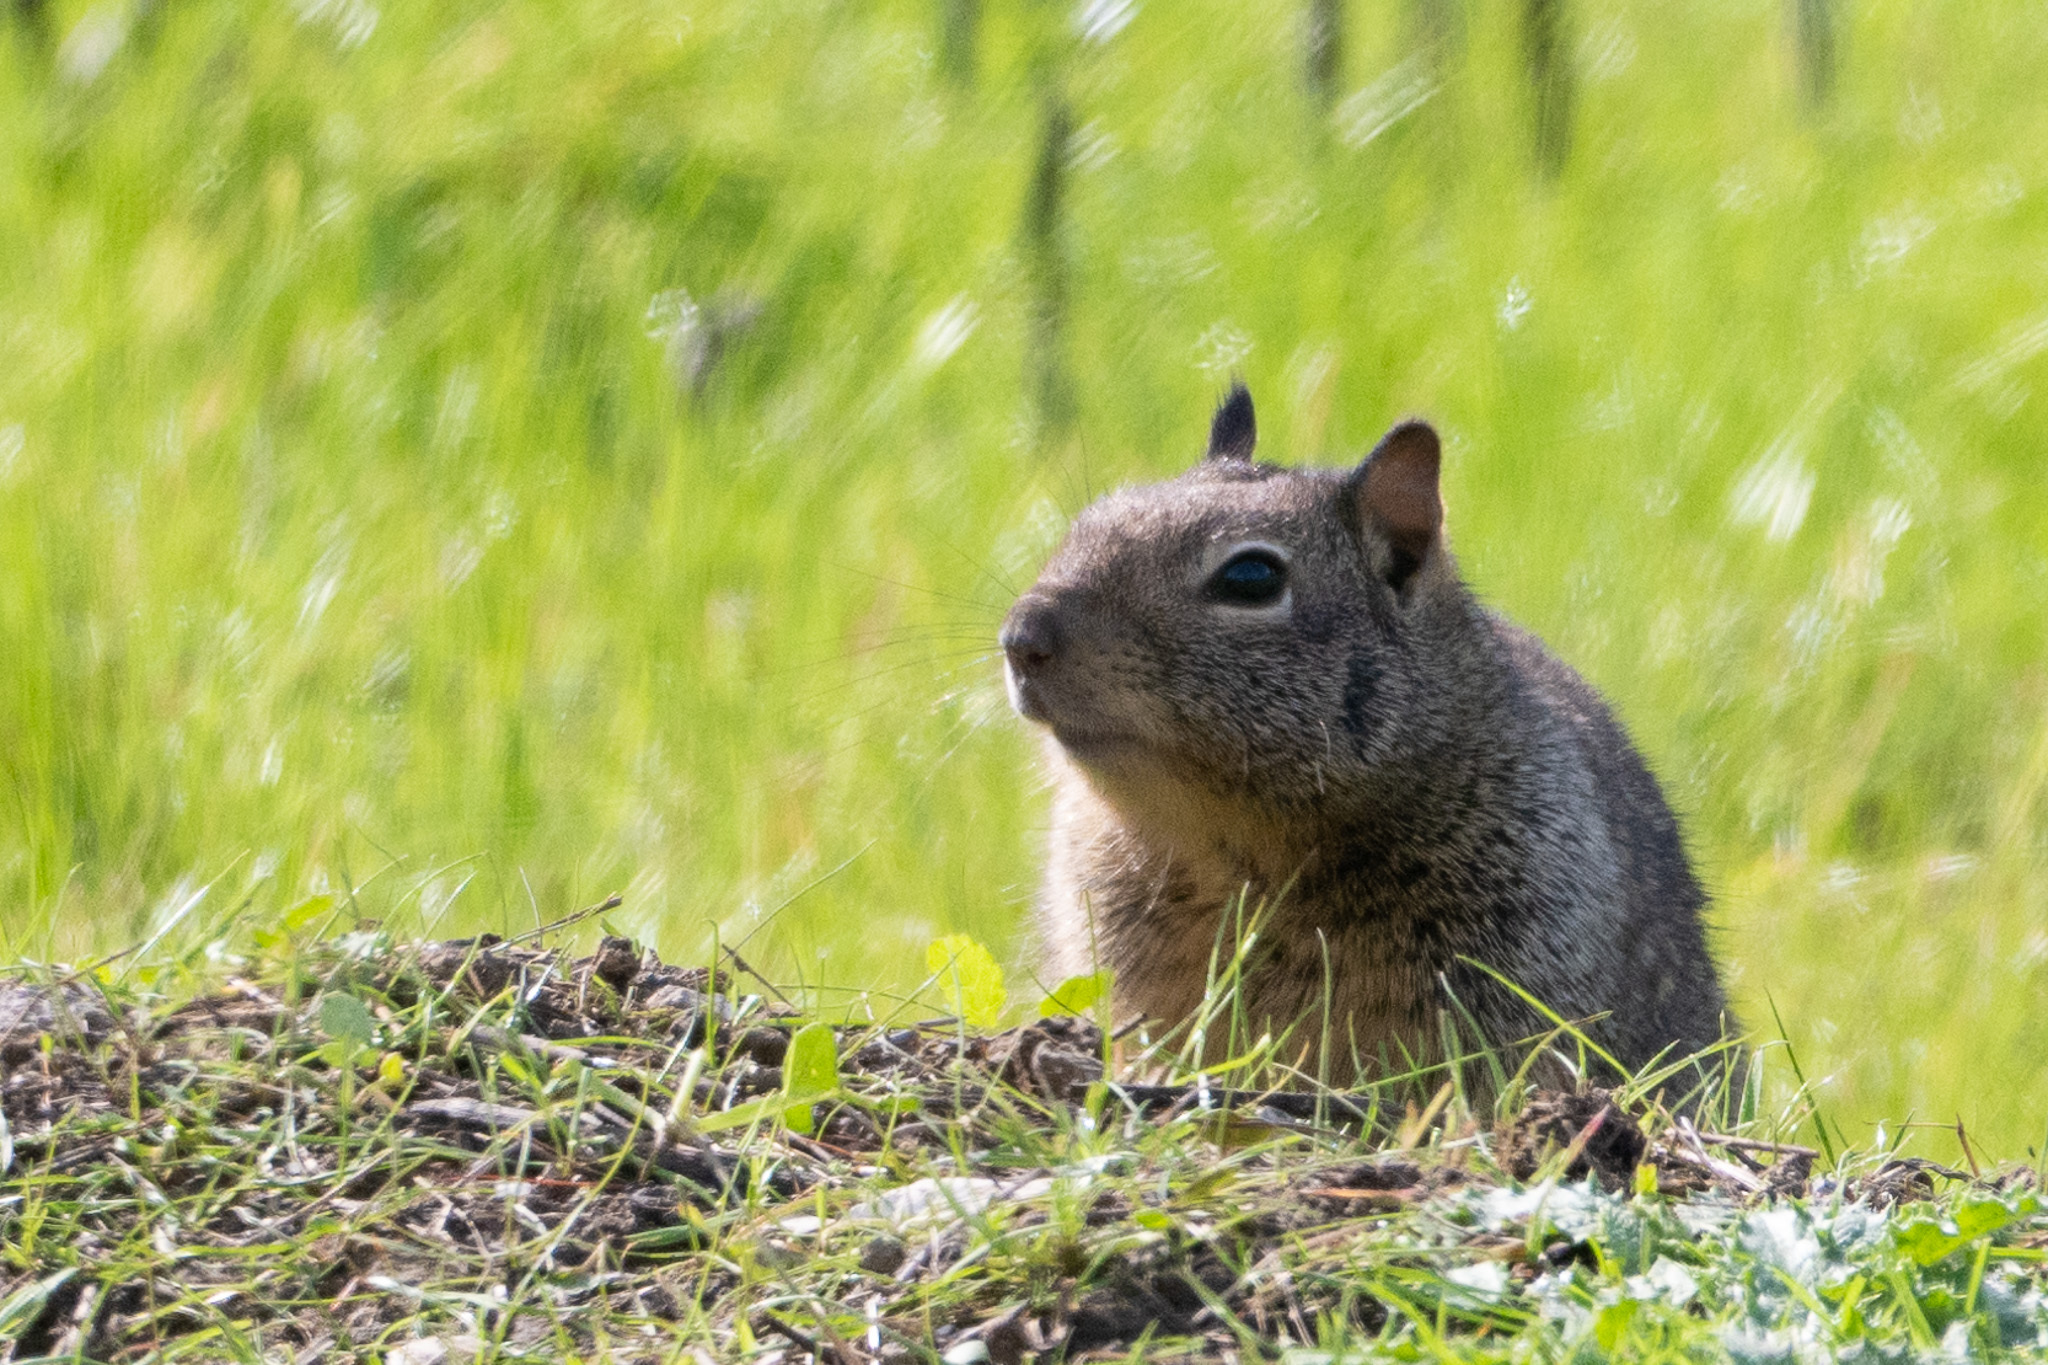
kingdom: Animalia
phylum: Chordata
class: Mammalia
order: Rodentia
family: Sciuridae
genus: Otospermophilus
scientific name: Otospermophilus beecheyi
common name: California ground squirrel
